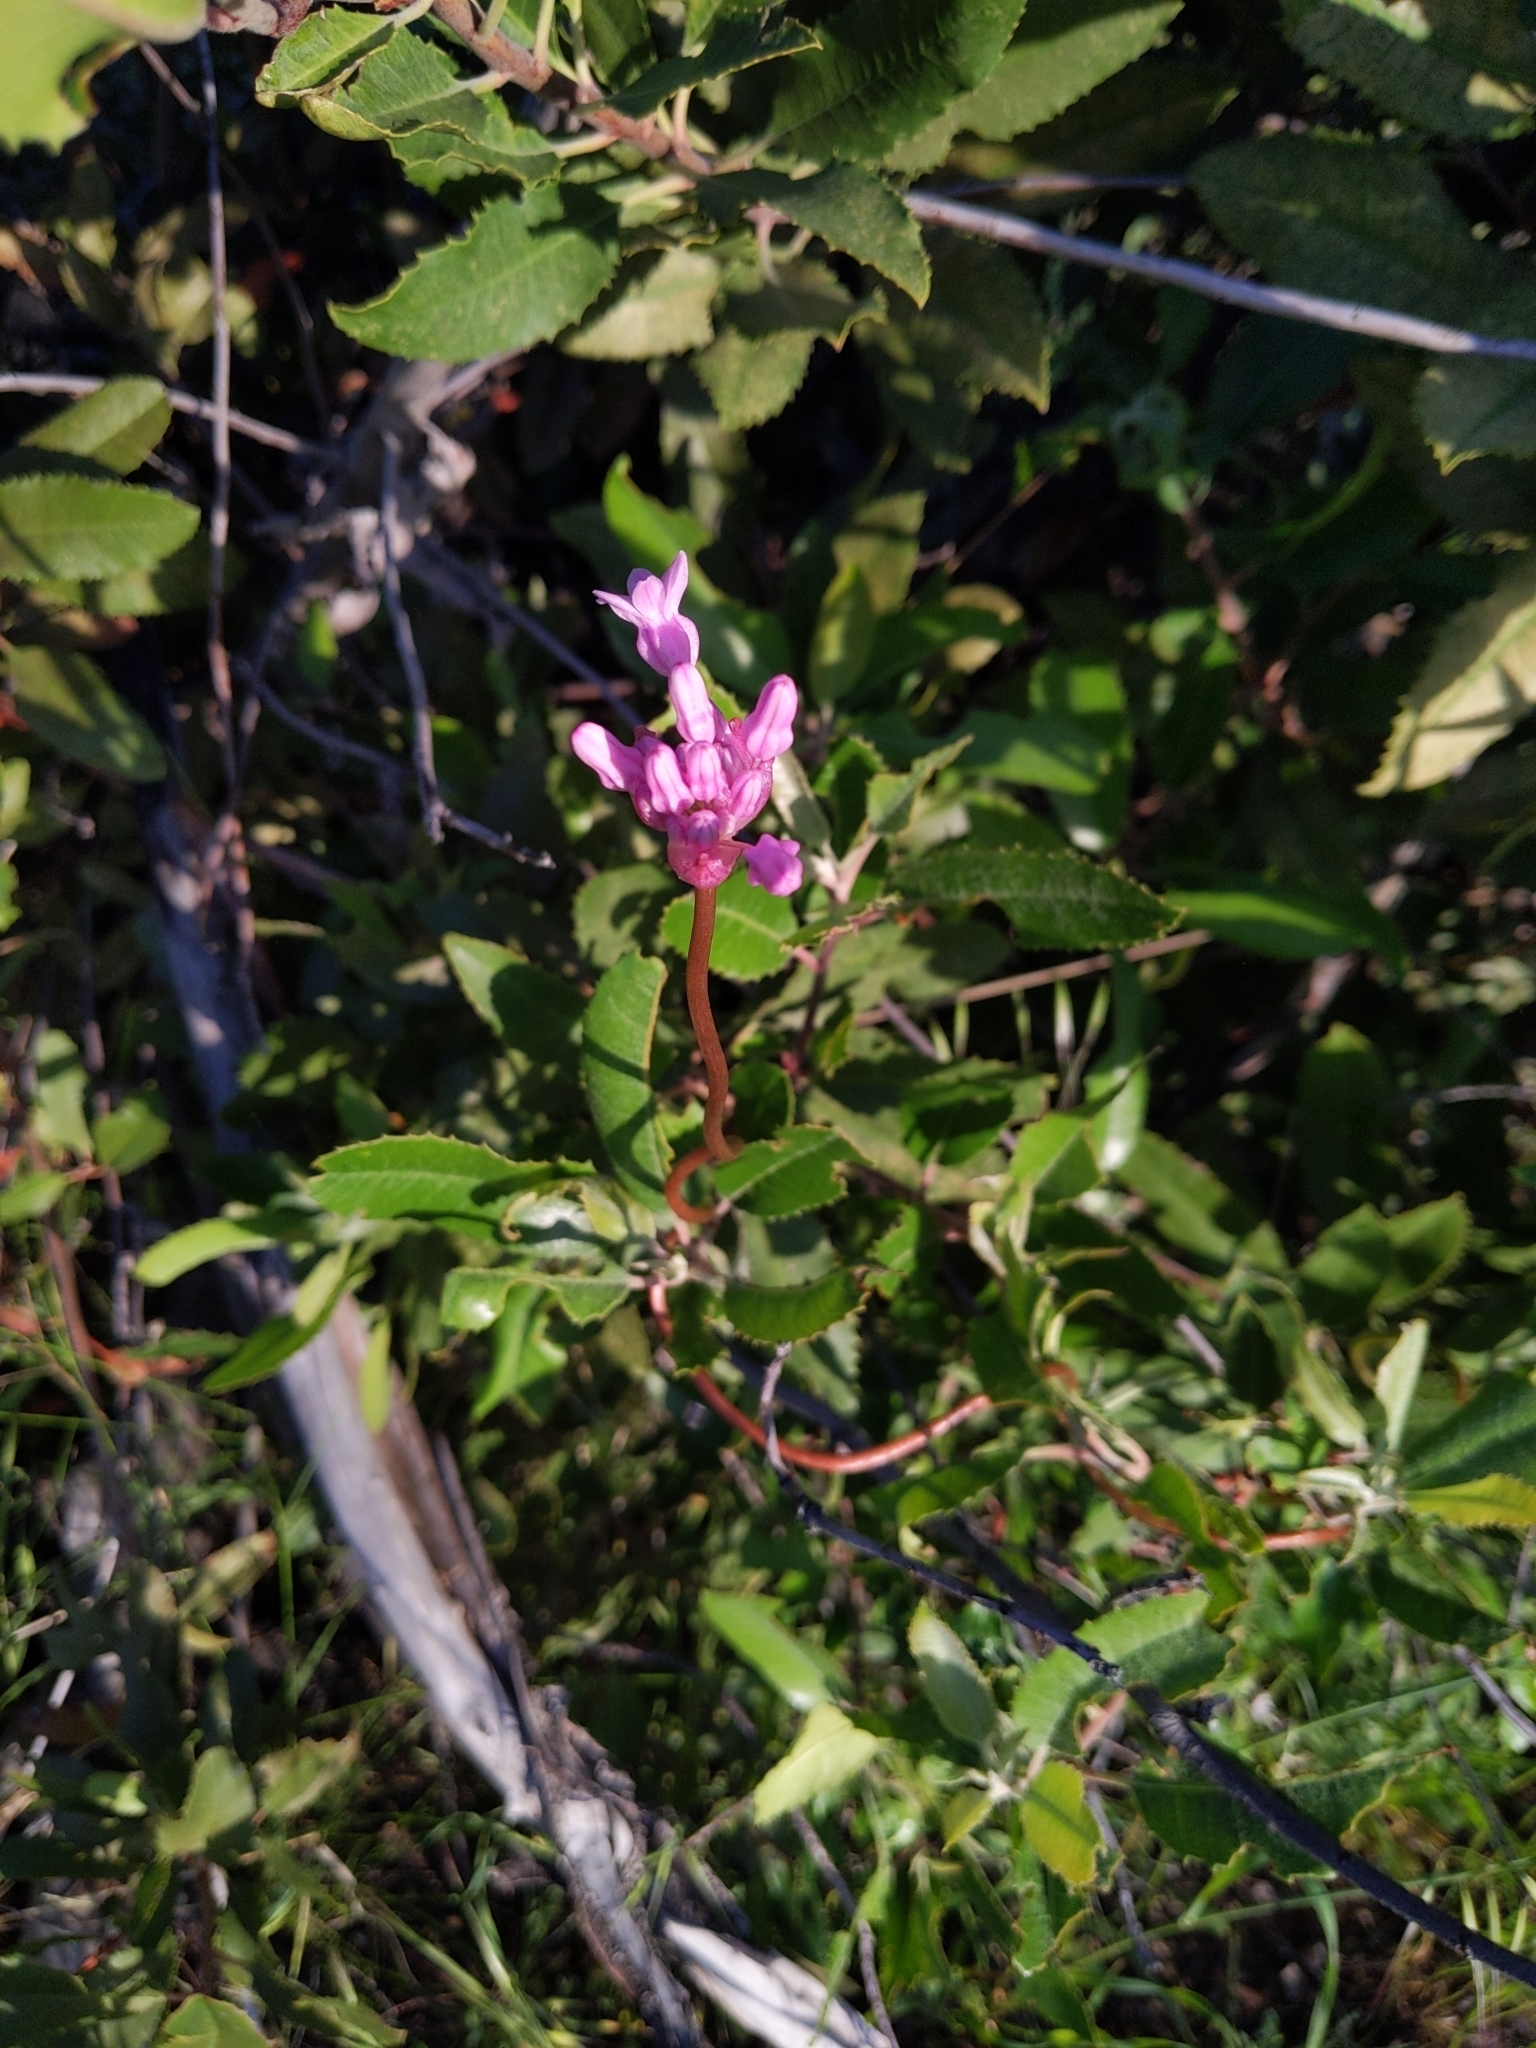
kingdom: Plantae
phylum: Tracheophyta
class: Liliopsida
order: Asparagales
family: Asparagaceae
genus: Dichelostemma
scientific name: Dichelostemma volubile
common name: Trining brodiaea
